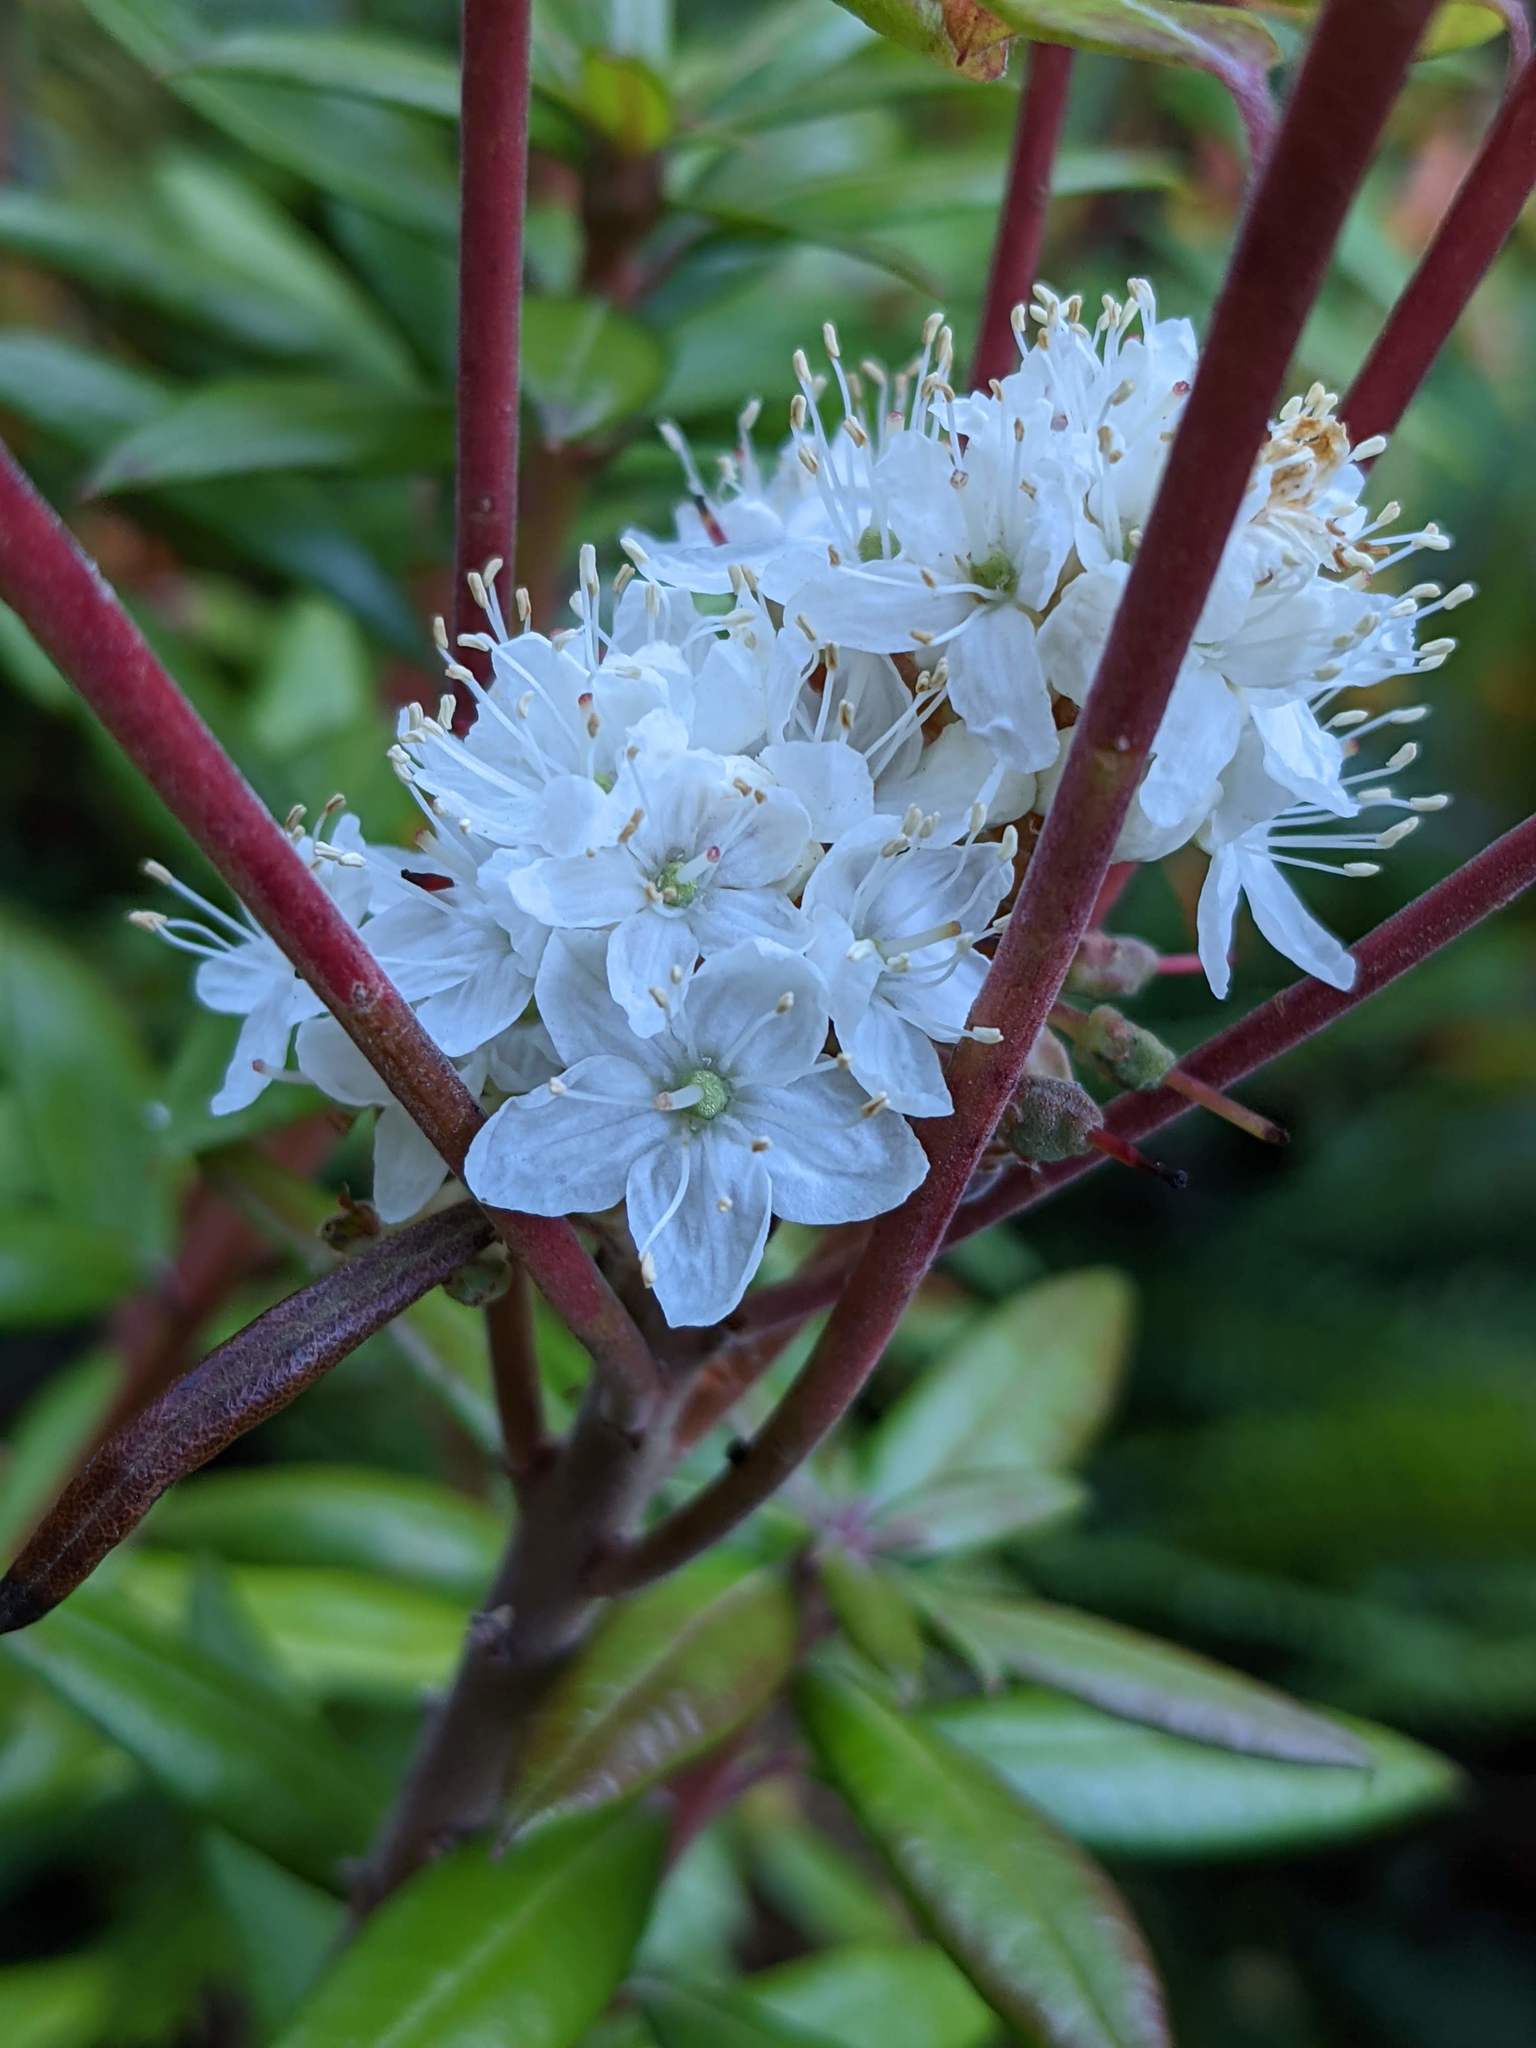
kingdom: Plantae
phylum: Tracheophyta
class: Magnoliopsida
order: Ericales
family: Ericaceae
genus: Rhododendron
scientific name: Rhododendron columbianum
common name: Western labrador tea
